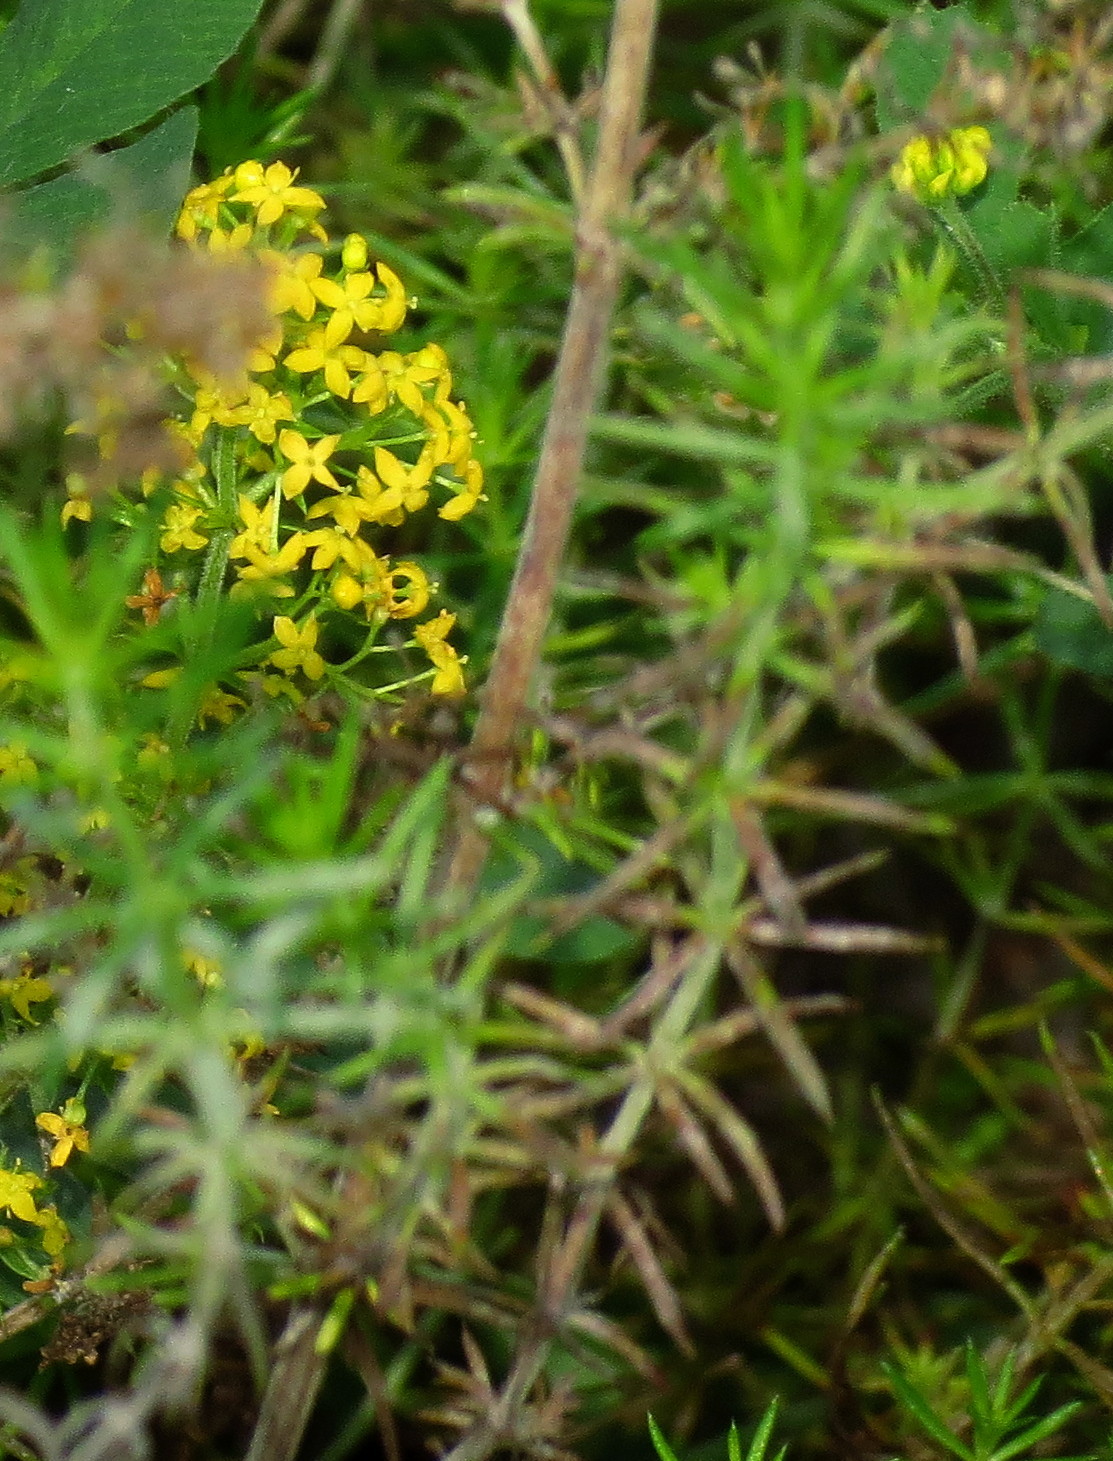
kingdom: Plantae
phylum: Tracheophyta
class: Magnoliopsida
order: Gentianales
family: Rubiaceae
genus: Galium
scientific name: Galium verum
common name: Lady's bedstraw
